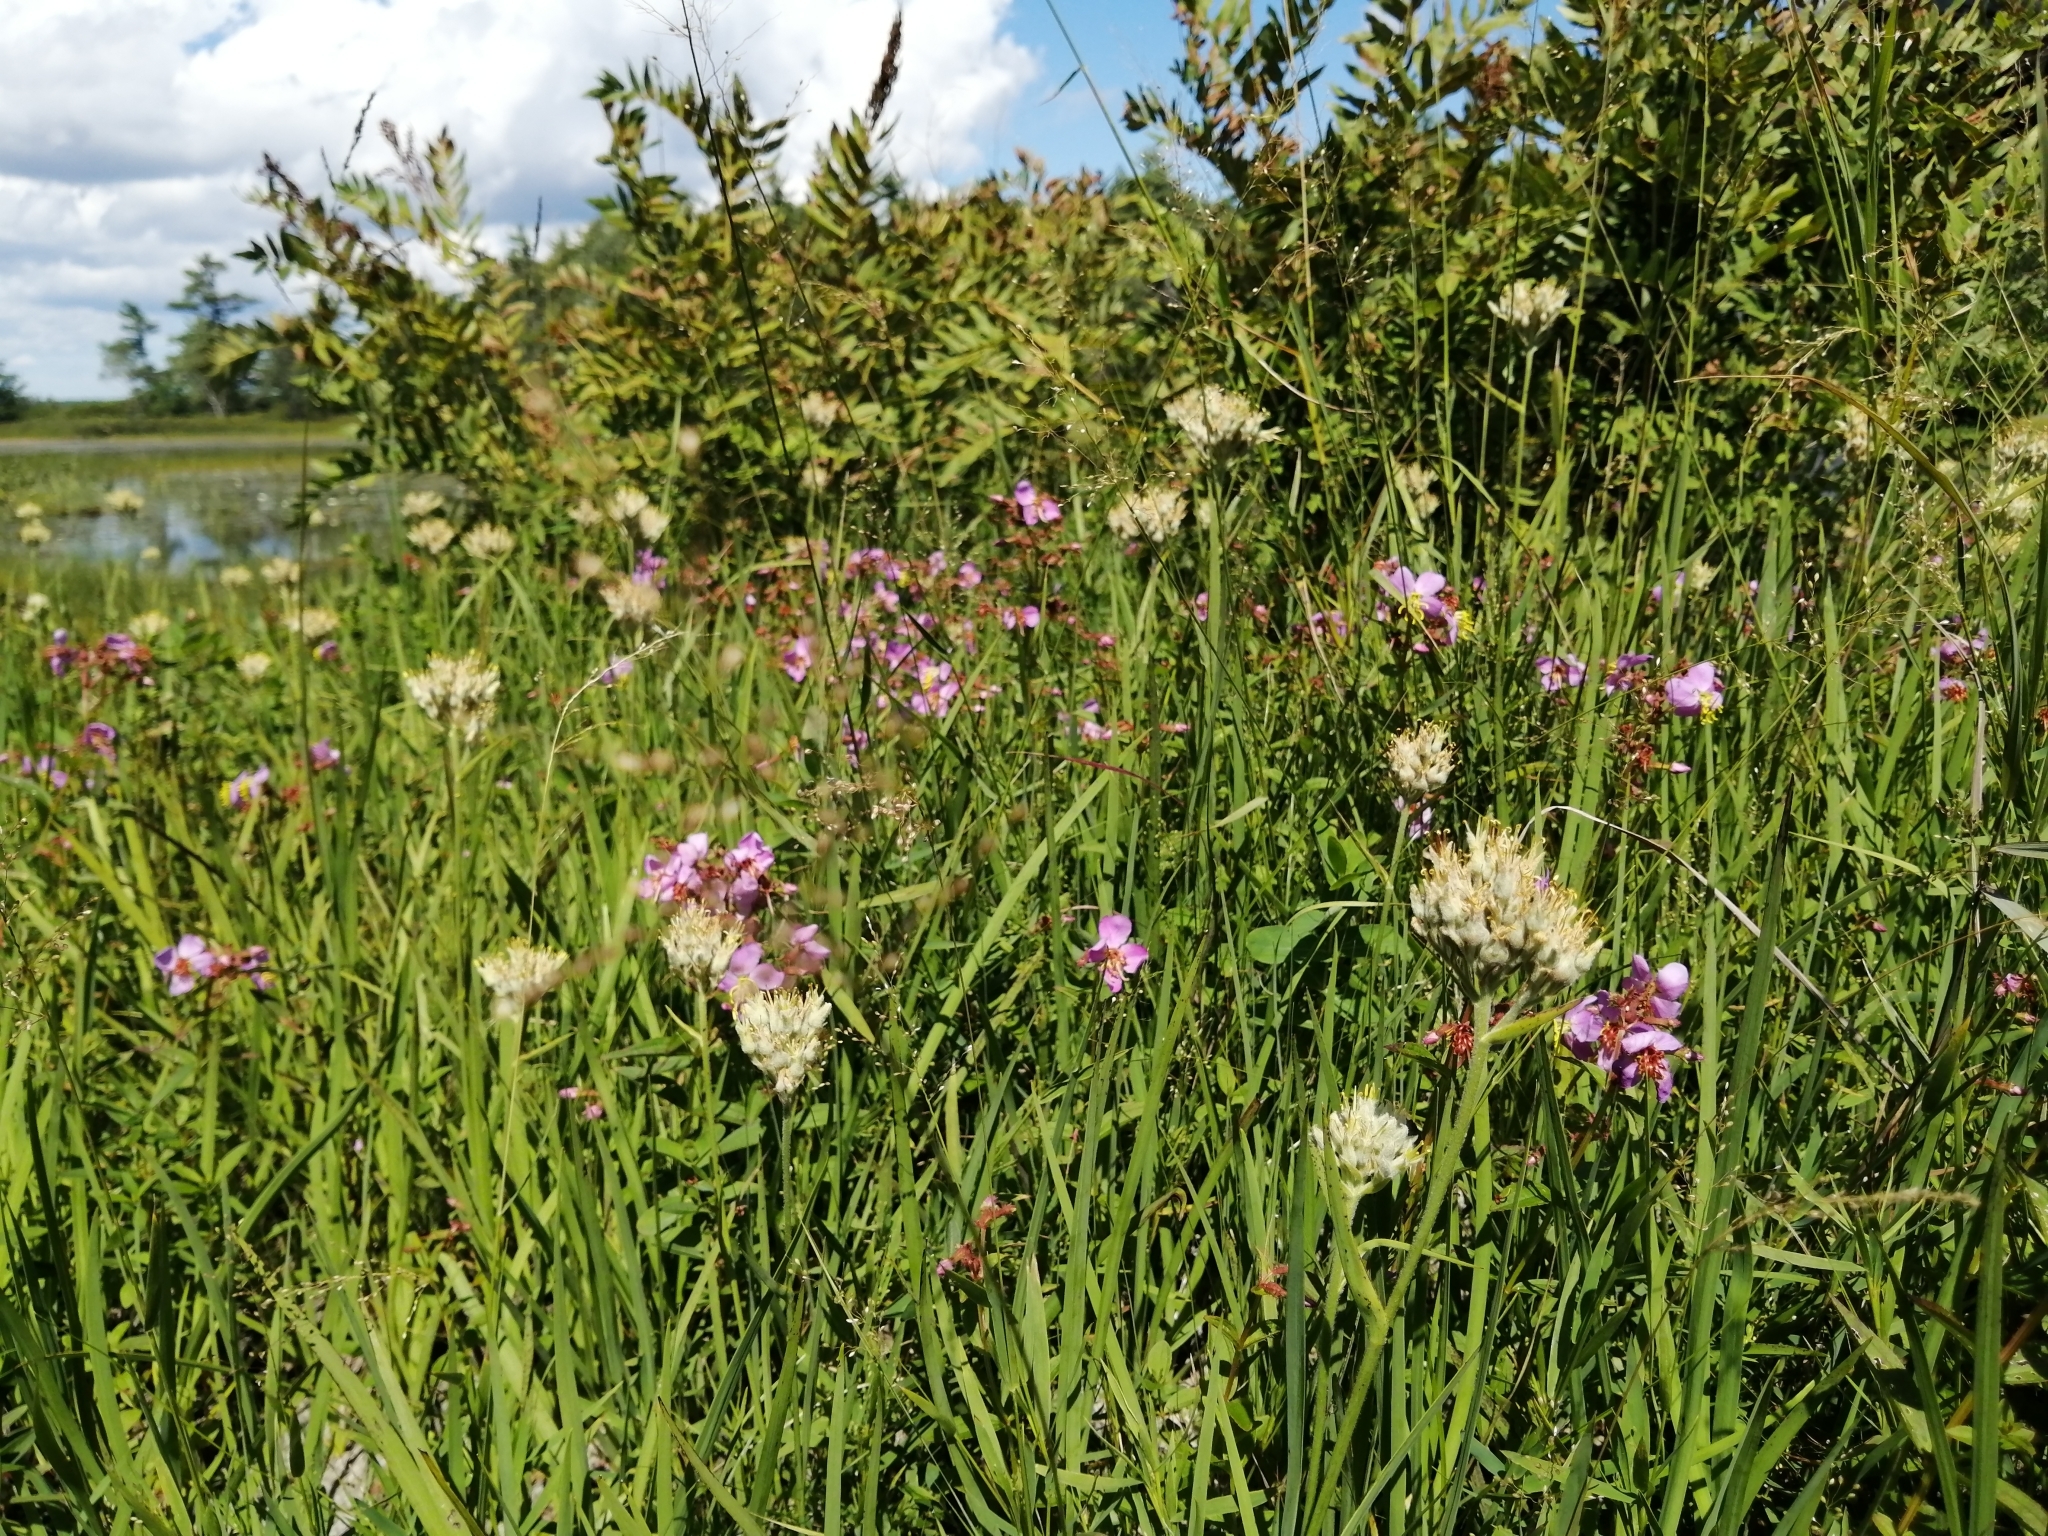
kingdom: Plantae
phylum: Tracheophyta
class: Liliopsida
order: Commelinales
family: Haemodoraceae
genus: Lachnanthes
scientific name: Lachnanthes caroliana
